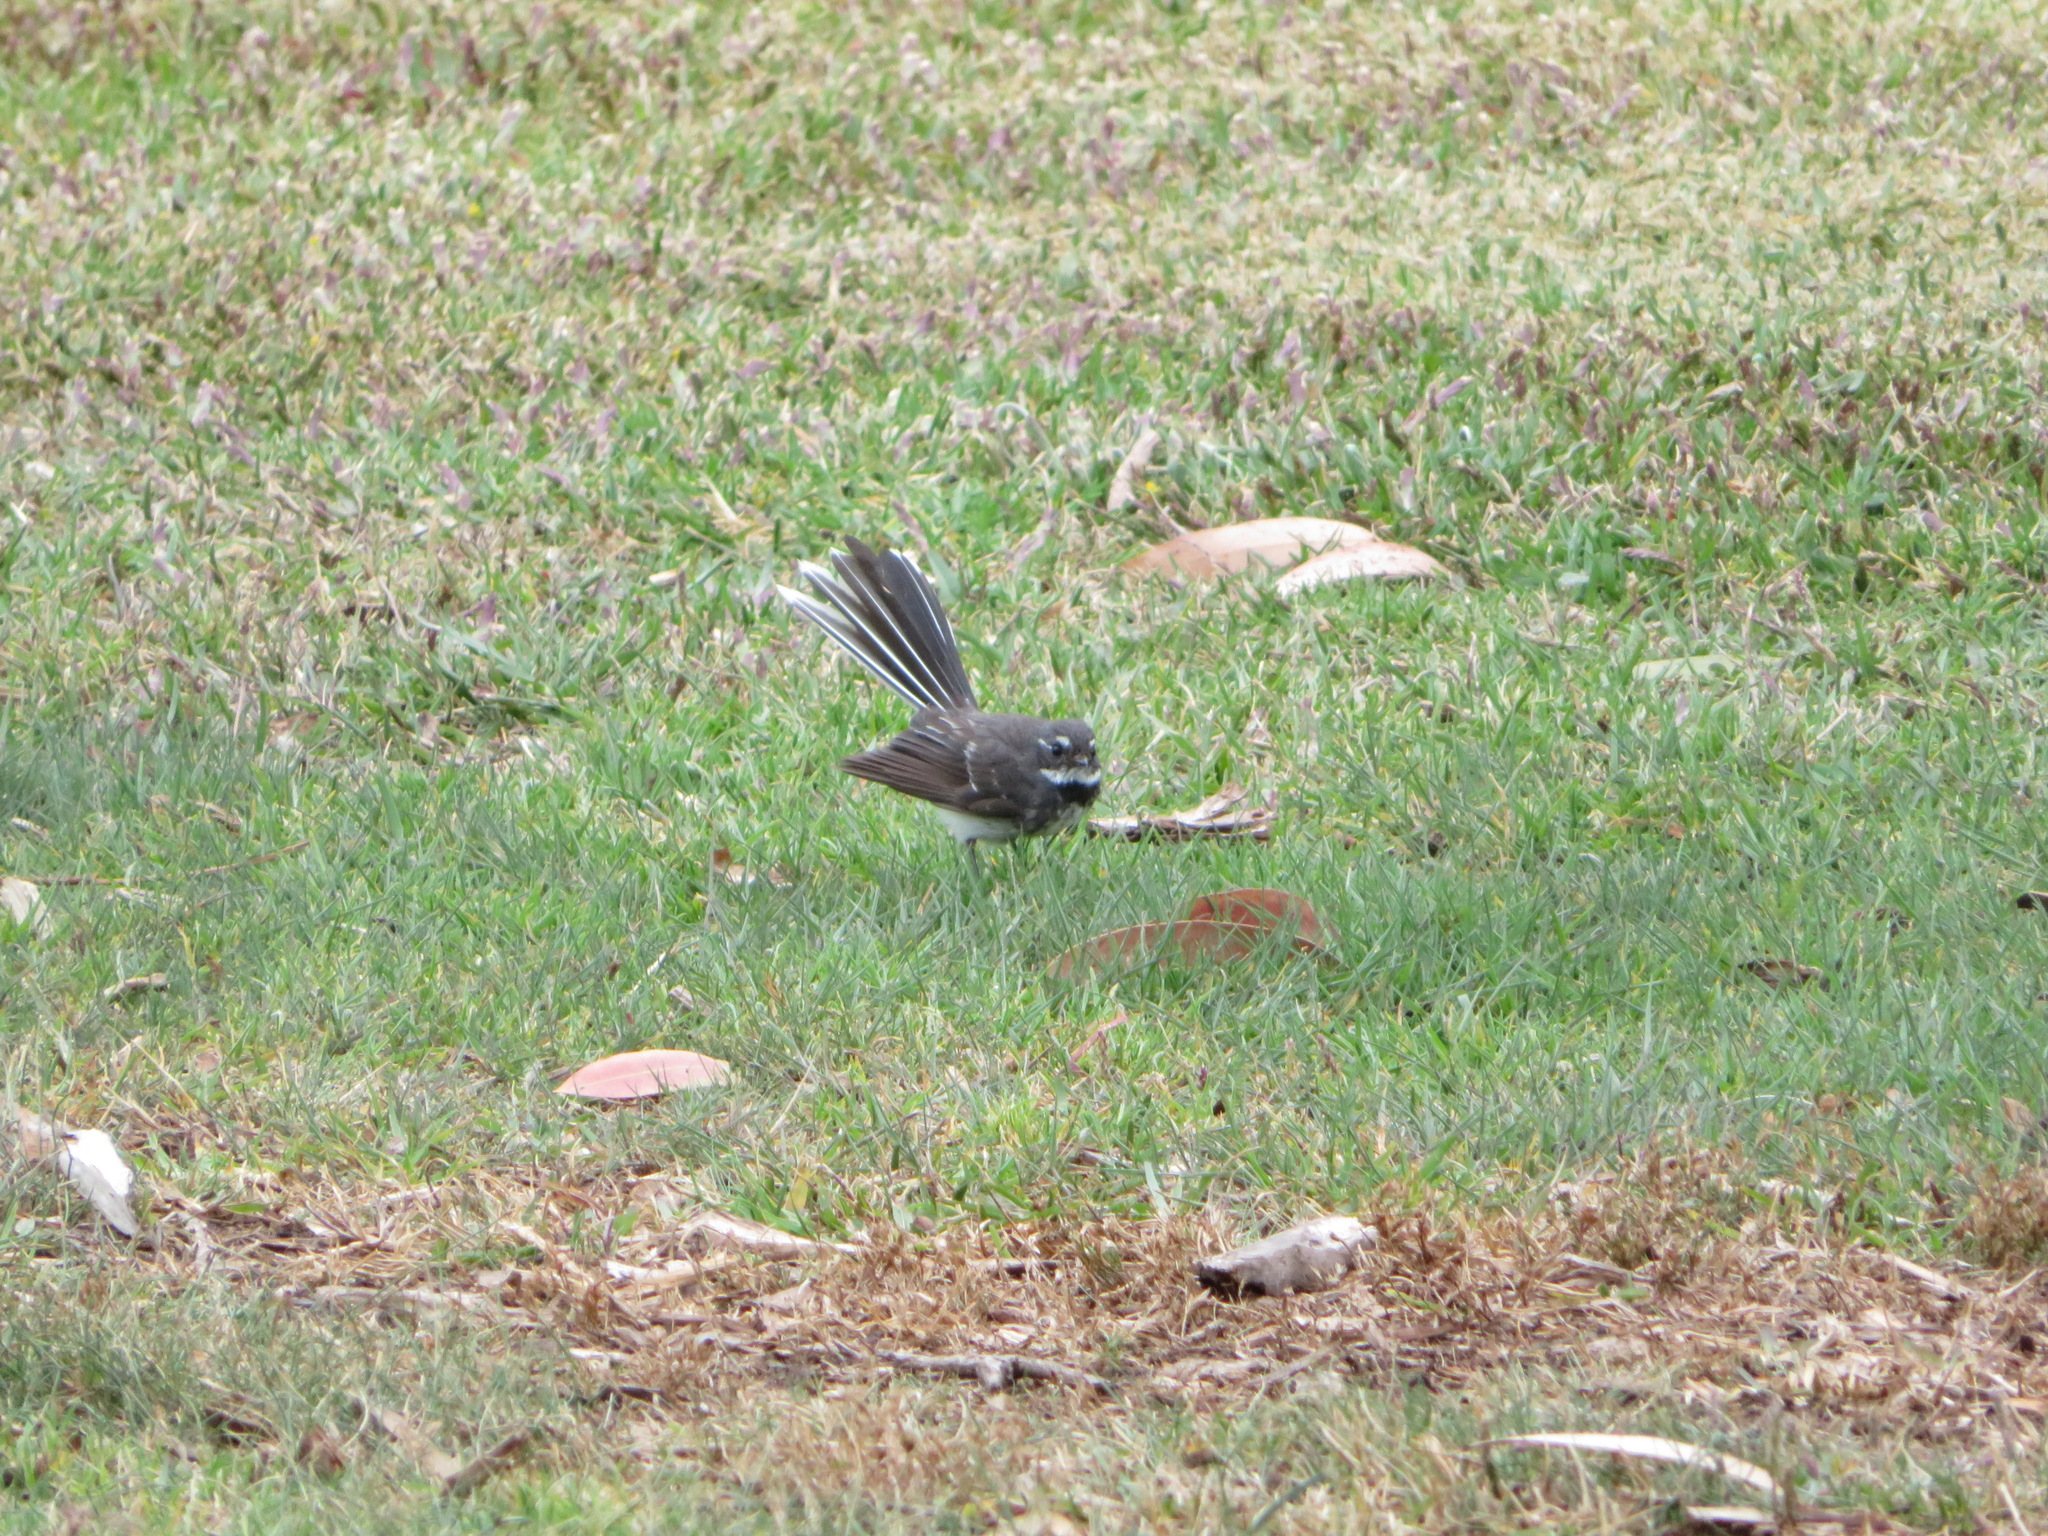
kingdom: Animalia
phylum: Chordata
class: Aves
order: Passeriformes
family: Rhipiduridae
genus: Rhipidura
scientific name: Rhipidura albiscapa
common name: Grey fantail
